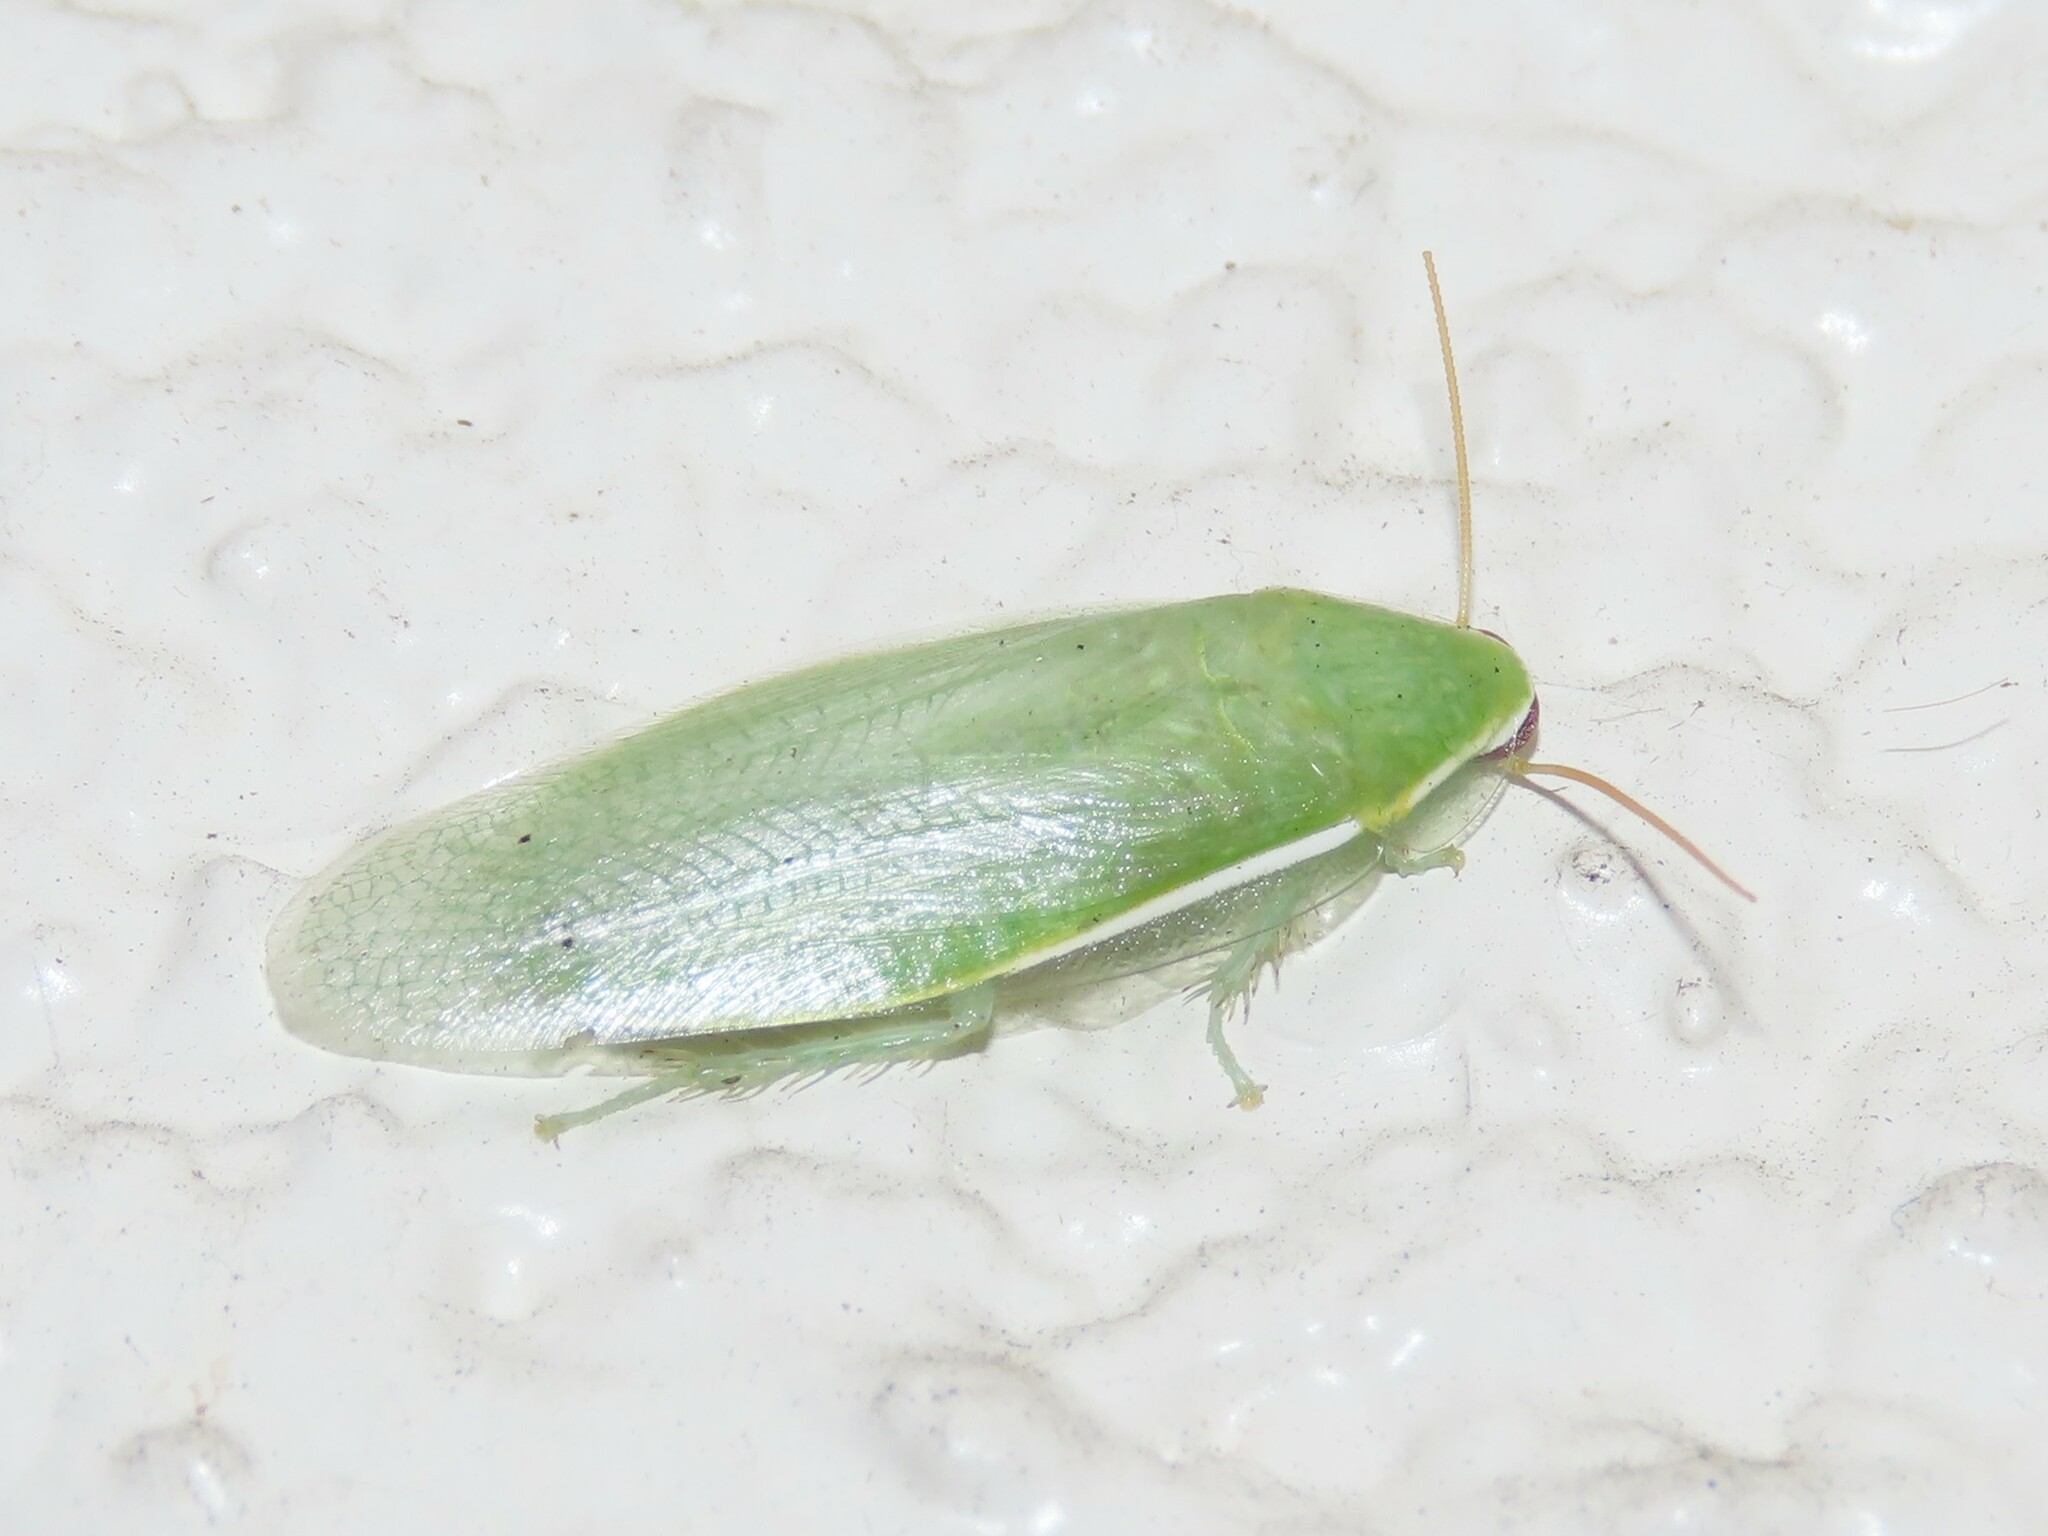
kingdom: Animalia
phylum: Arthropoda
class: Insecta
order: Blattodea
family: Blaberidae
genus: Panchlora
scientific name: Panchlora nivea
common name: Cuban cockroach
